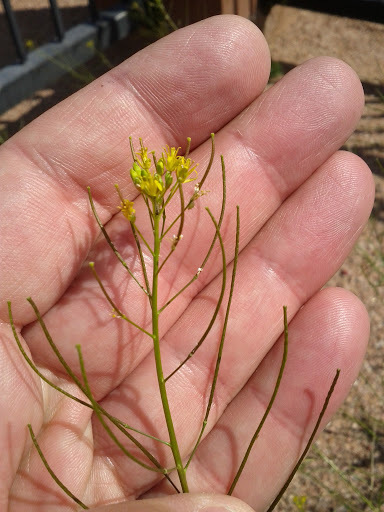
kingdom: Plantae
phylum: Tracheophyta
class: Magnoliopsida
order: Brassicales
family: Brassicaceae
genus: Sisymbrium
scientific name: Sisymbrium irio
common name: London rocket
